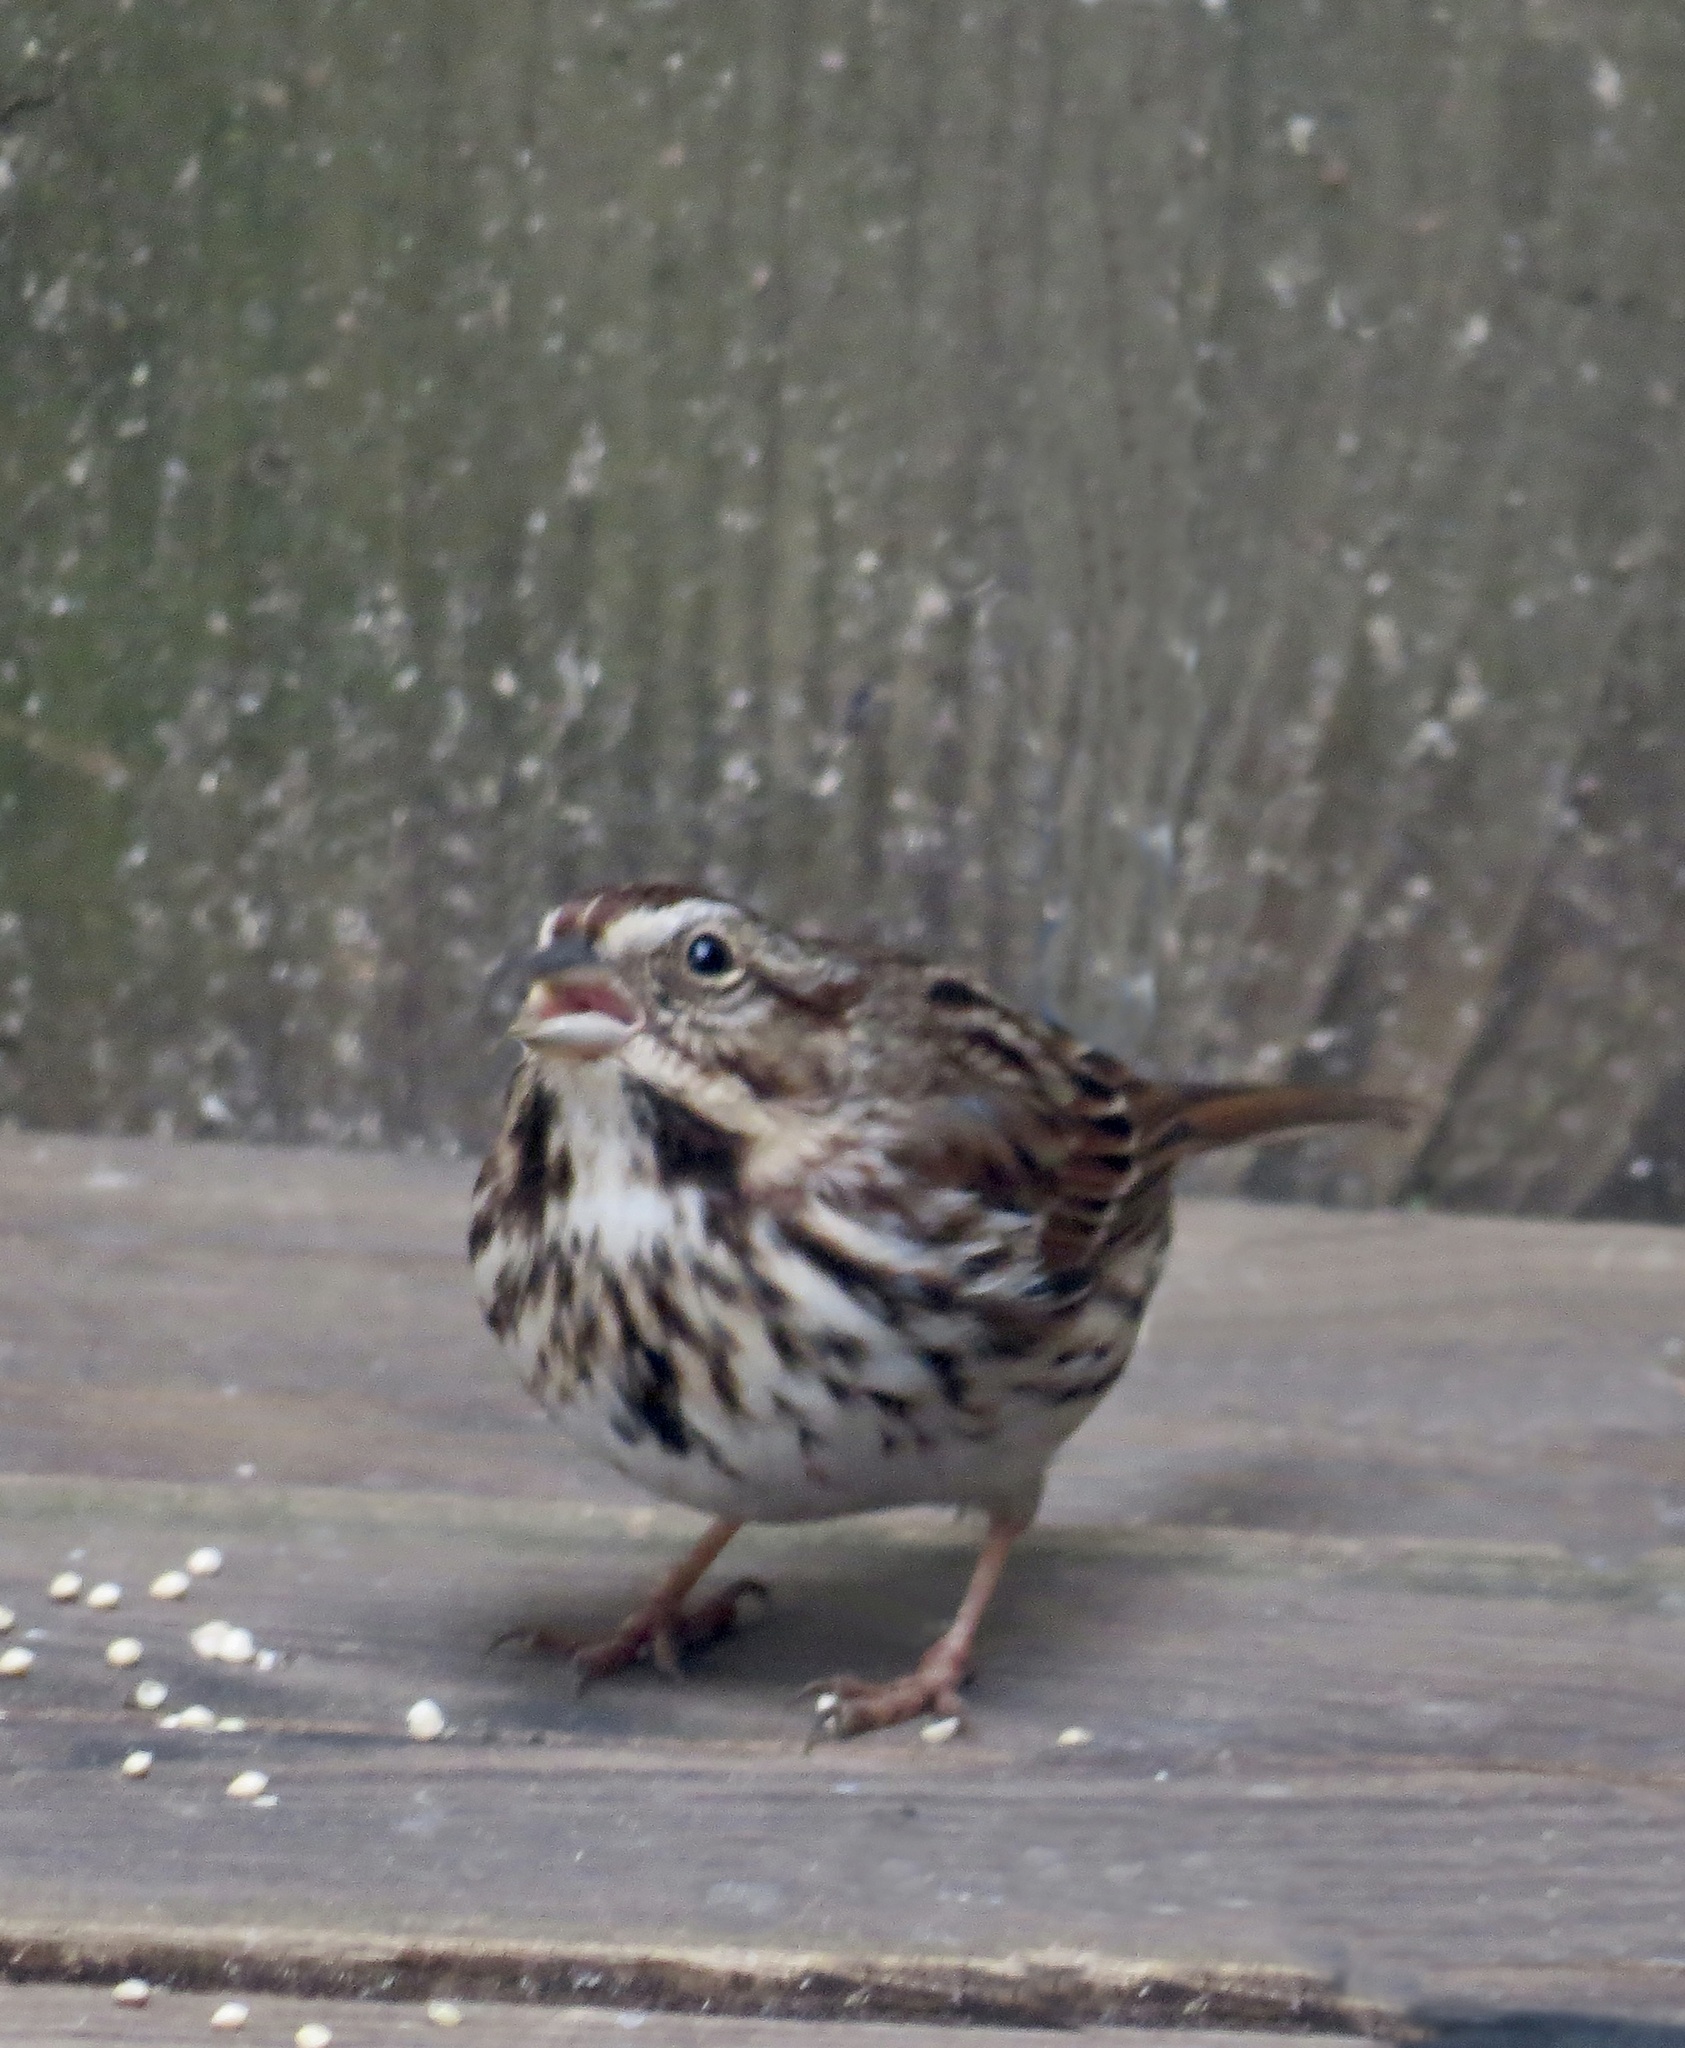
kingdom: Animalia
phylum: Chordata
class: Aves
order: Passeriformes
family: Passerellidae
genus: Melospiza
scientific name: Melospiza melodia
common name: Song sparrow
